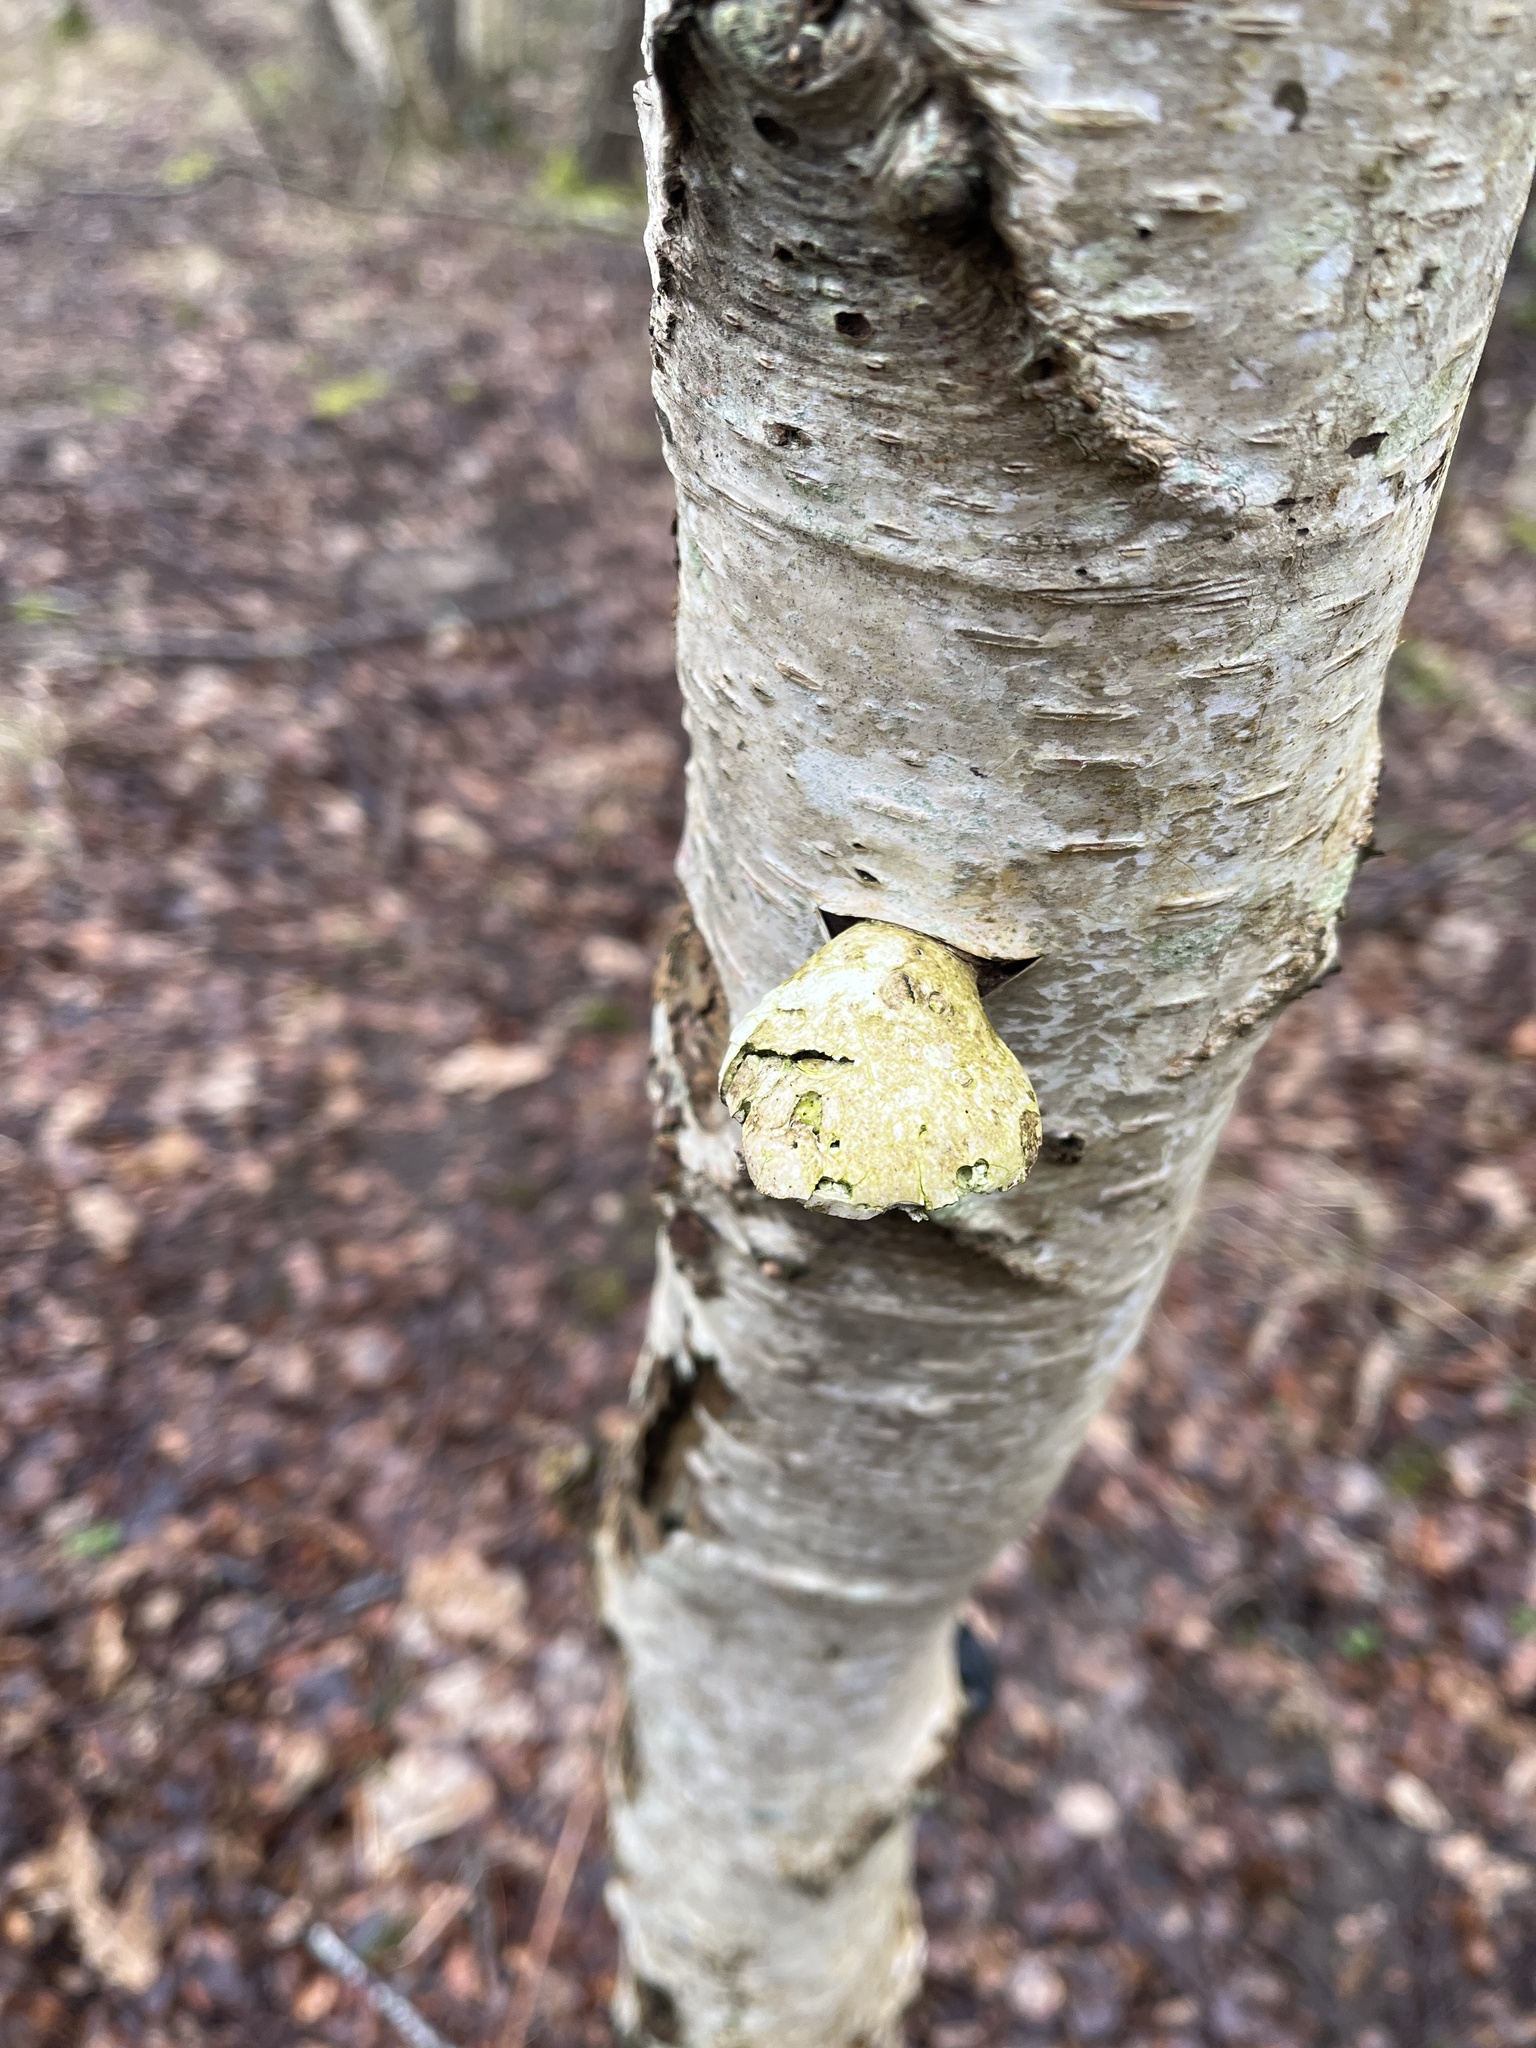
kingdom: Fungi
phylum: Basidiomycota
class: Agaricomycetes
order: Polyporales
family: Fomitopsidaceae
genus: Fomitopsis
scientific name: Fomitopsis betulina
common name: Birch polypore
